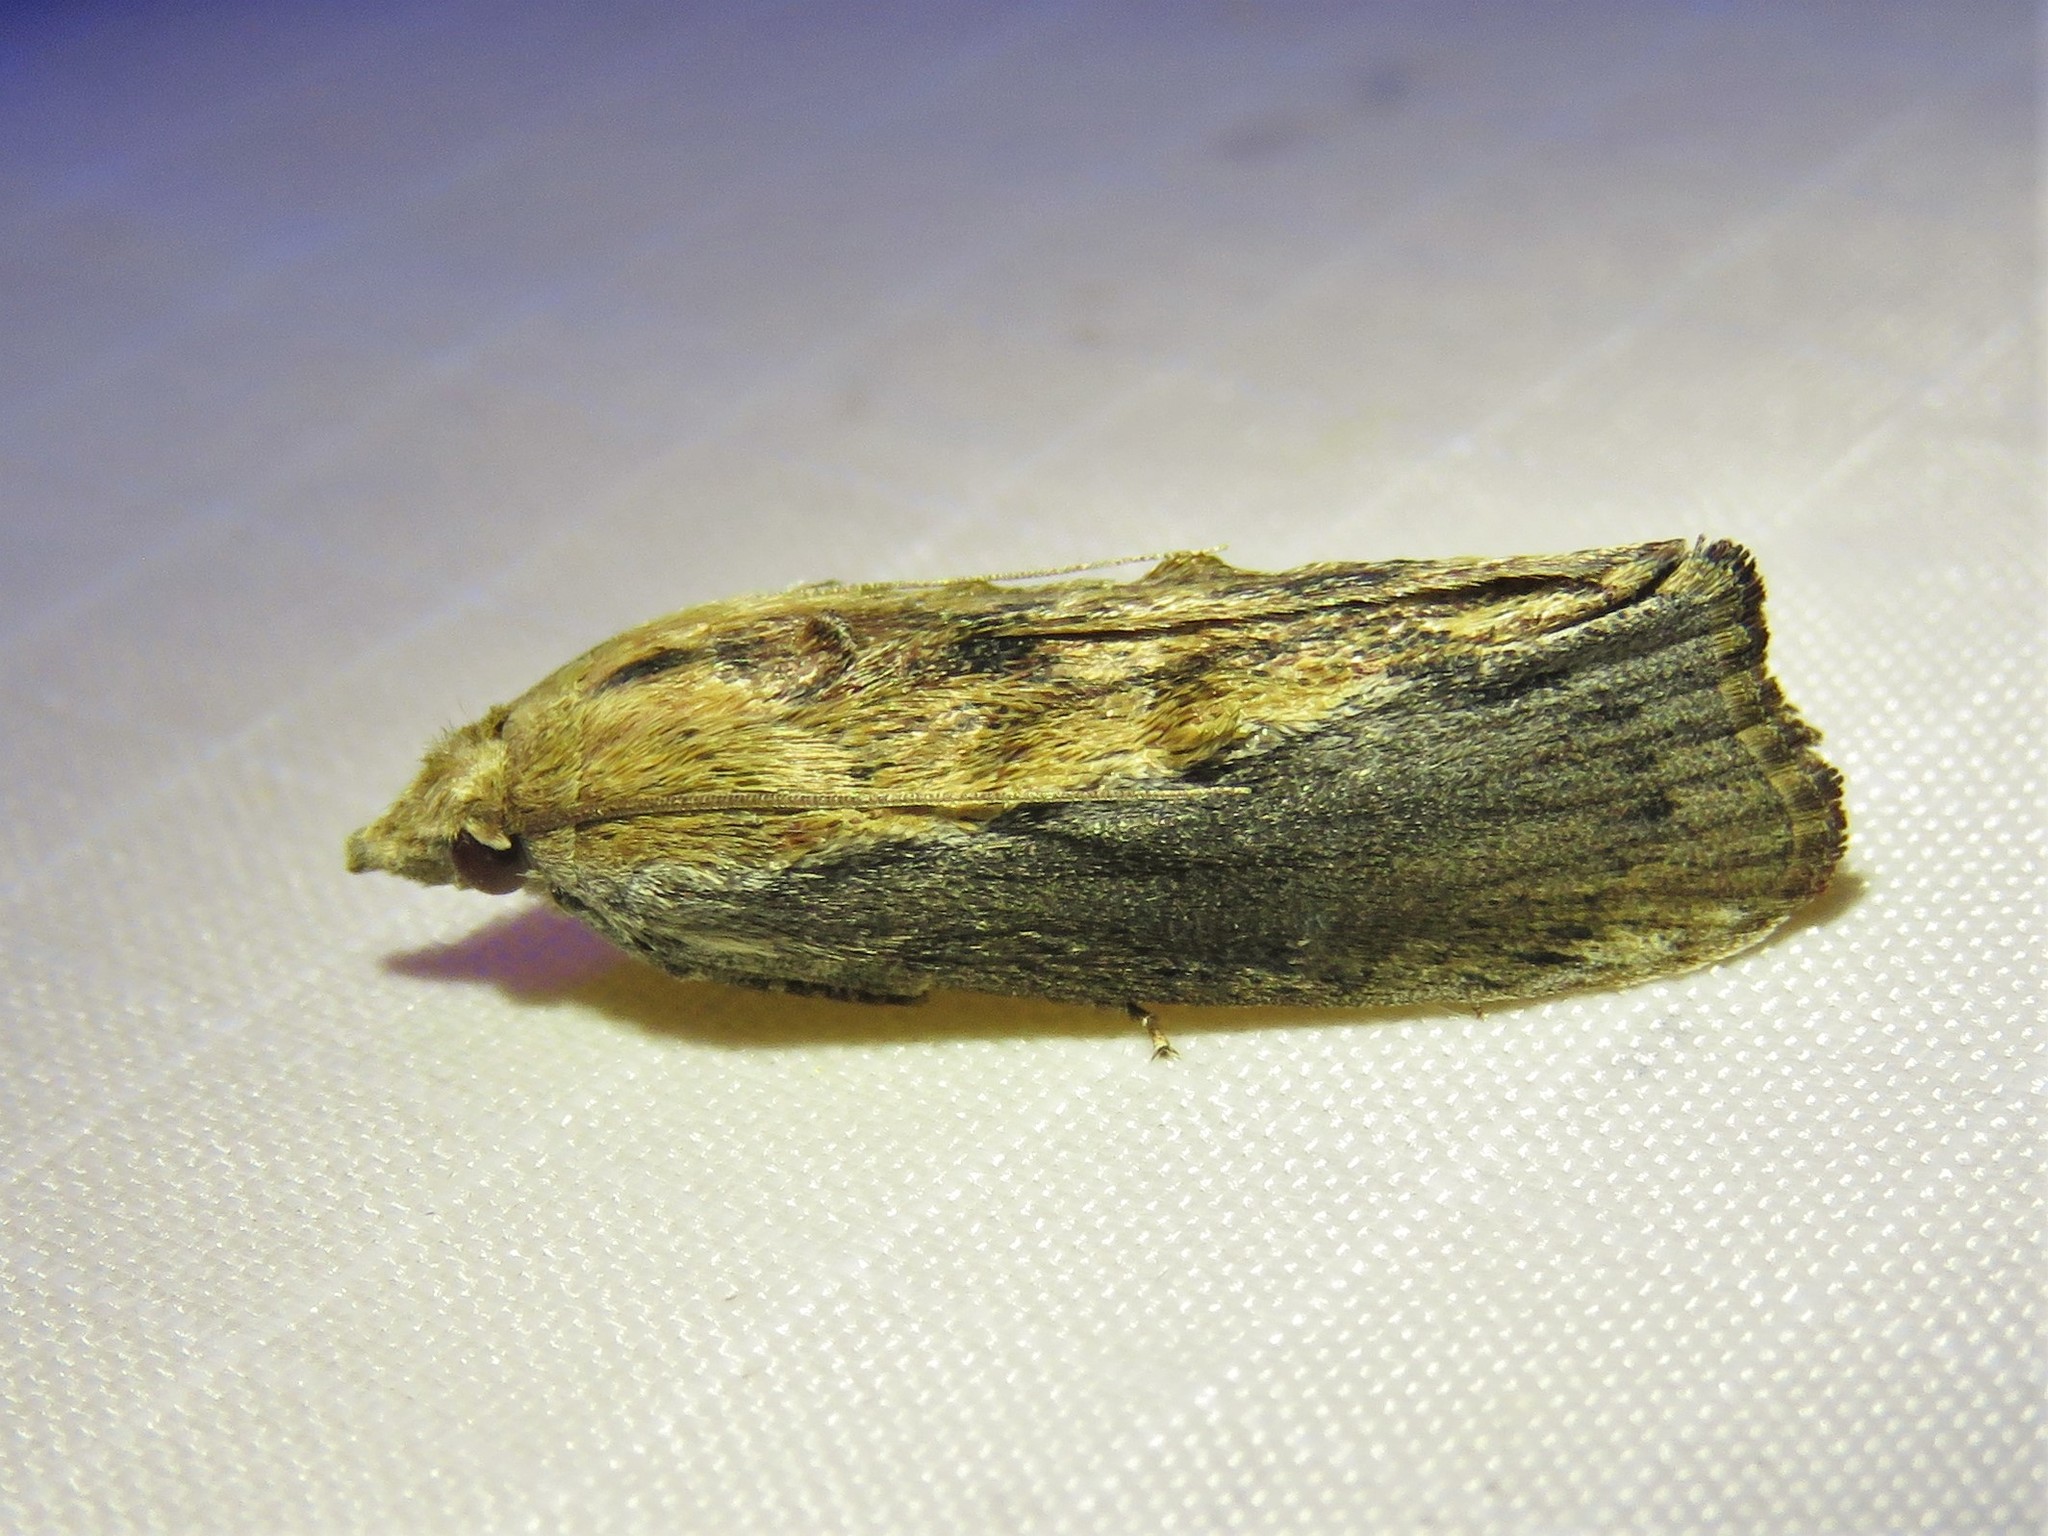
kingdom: Animalia
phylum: Arthropoda
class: Insecta
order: Lepidoptera
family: Pyralidae
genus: Galleria
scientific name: Galleria mellonella
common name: Greater wax moth
